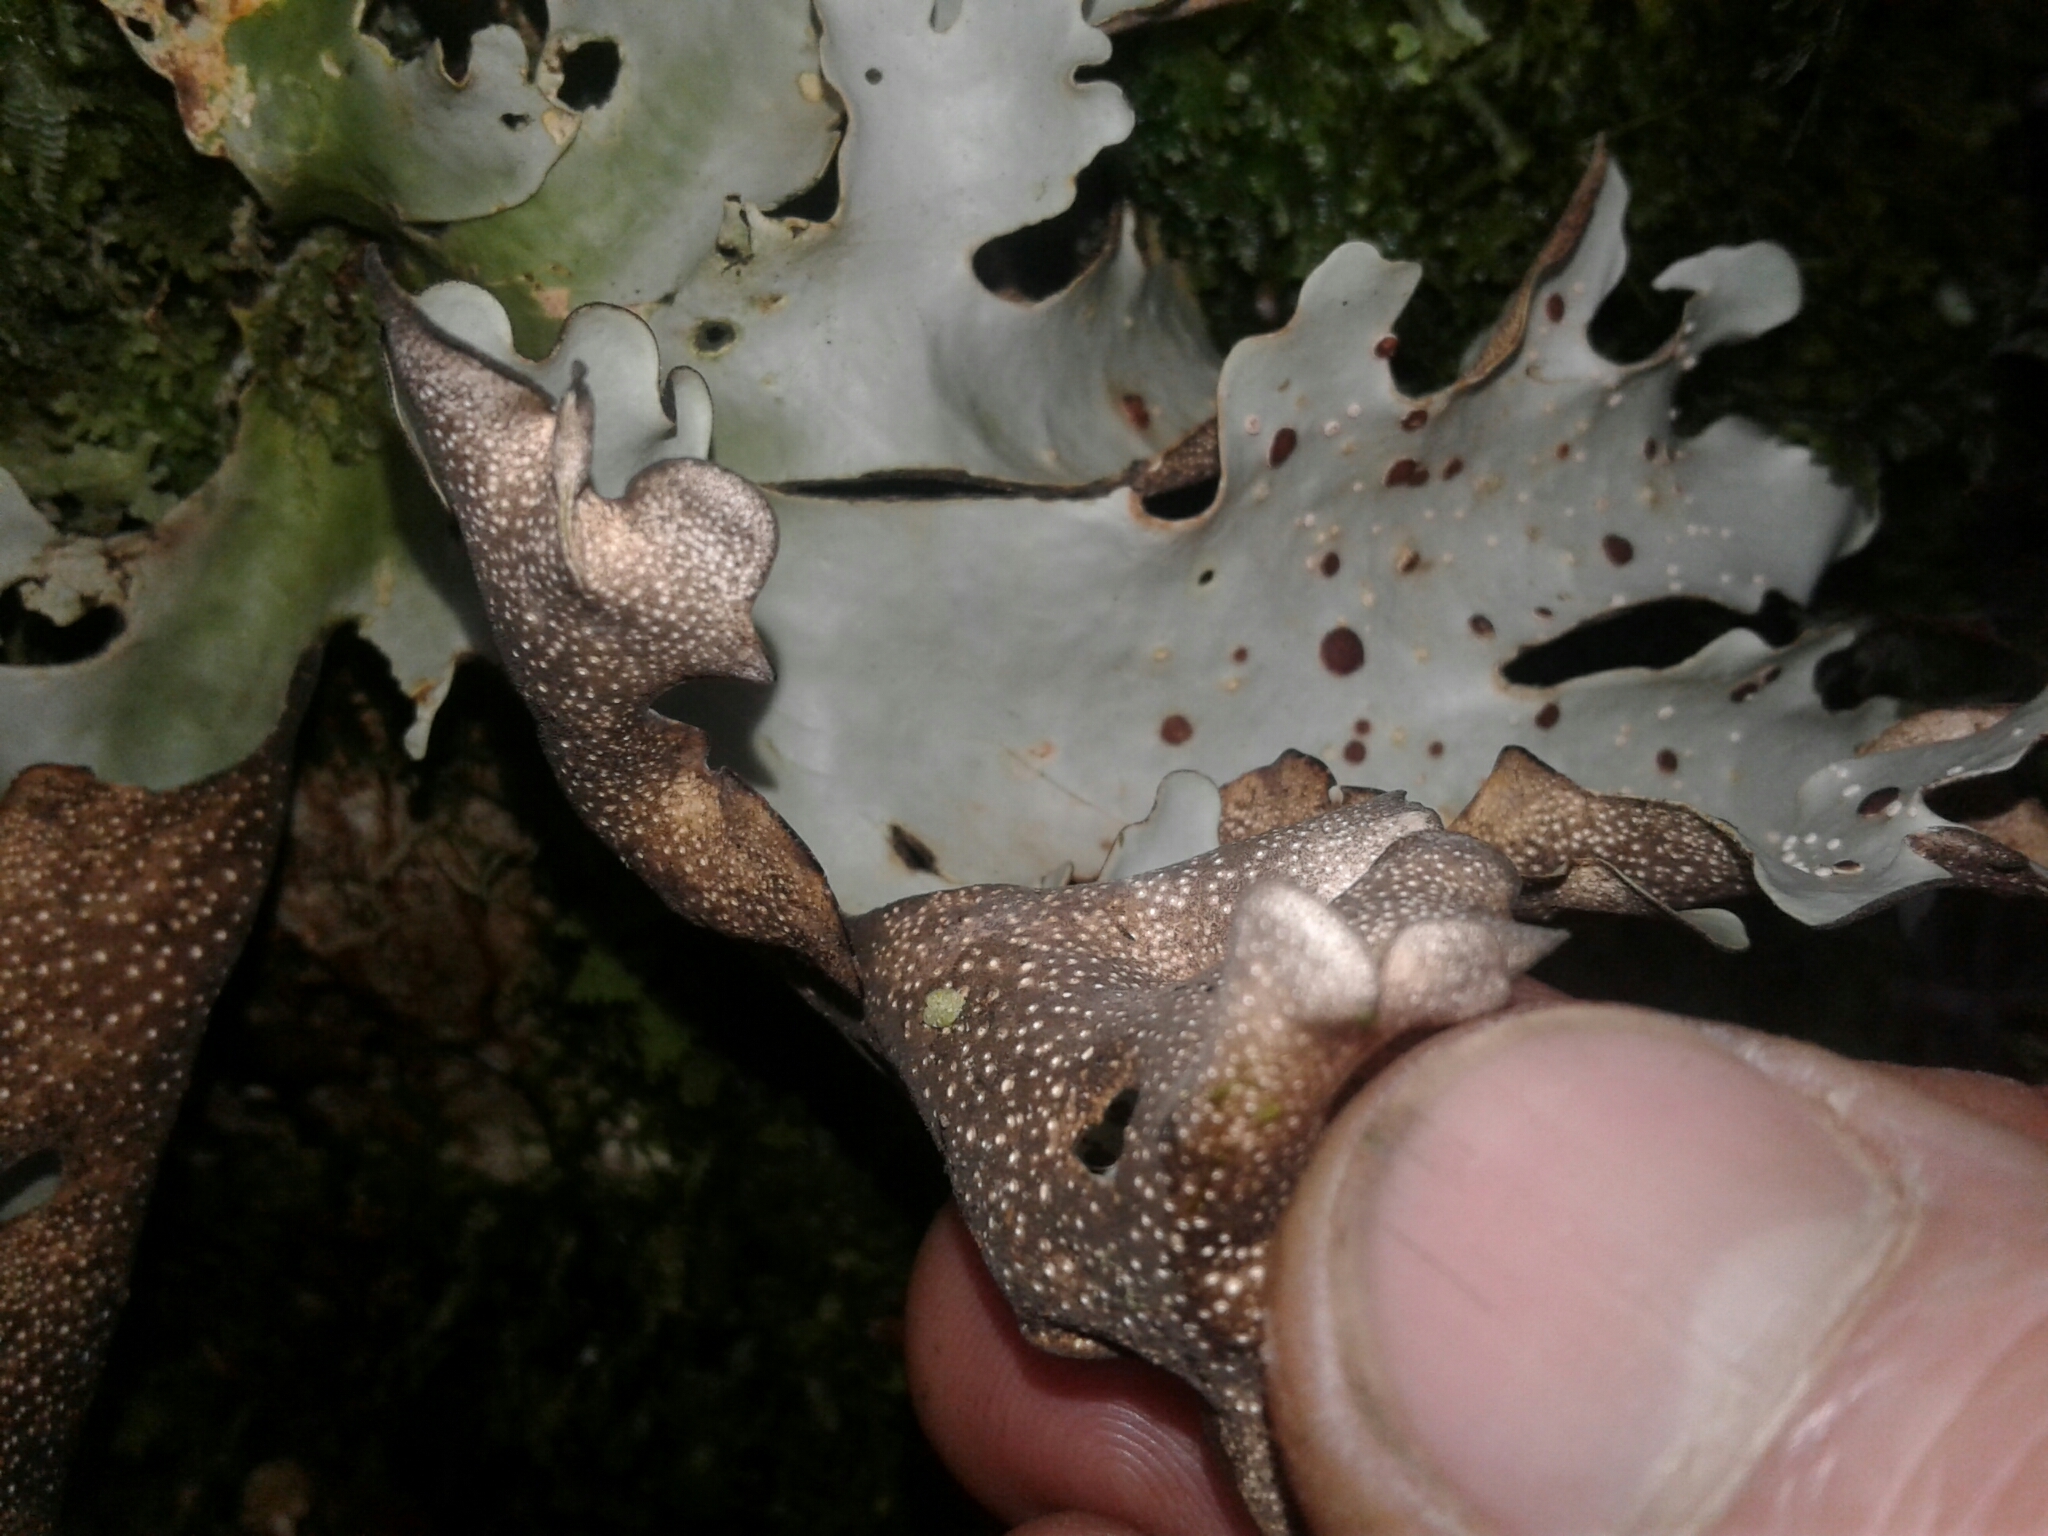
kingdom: Fungi
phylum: Ascomycota
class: Lecanoromycetes
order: Peltigerales
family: Lobariaceae
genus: Sticta
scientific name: Sticta latifrons
